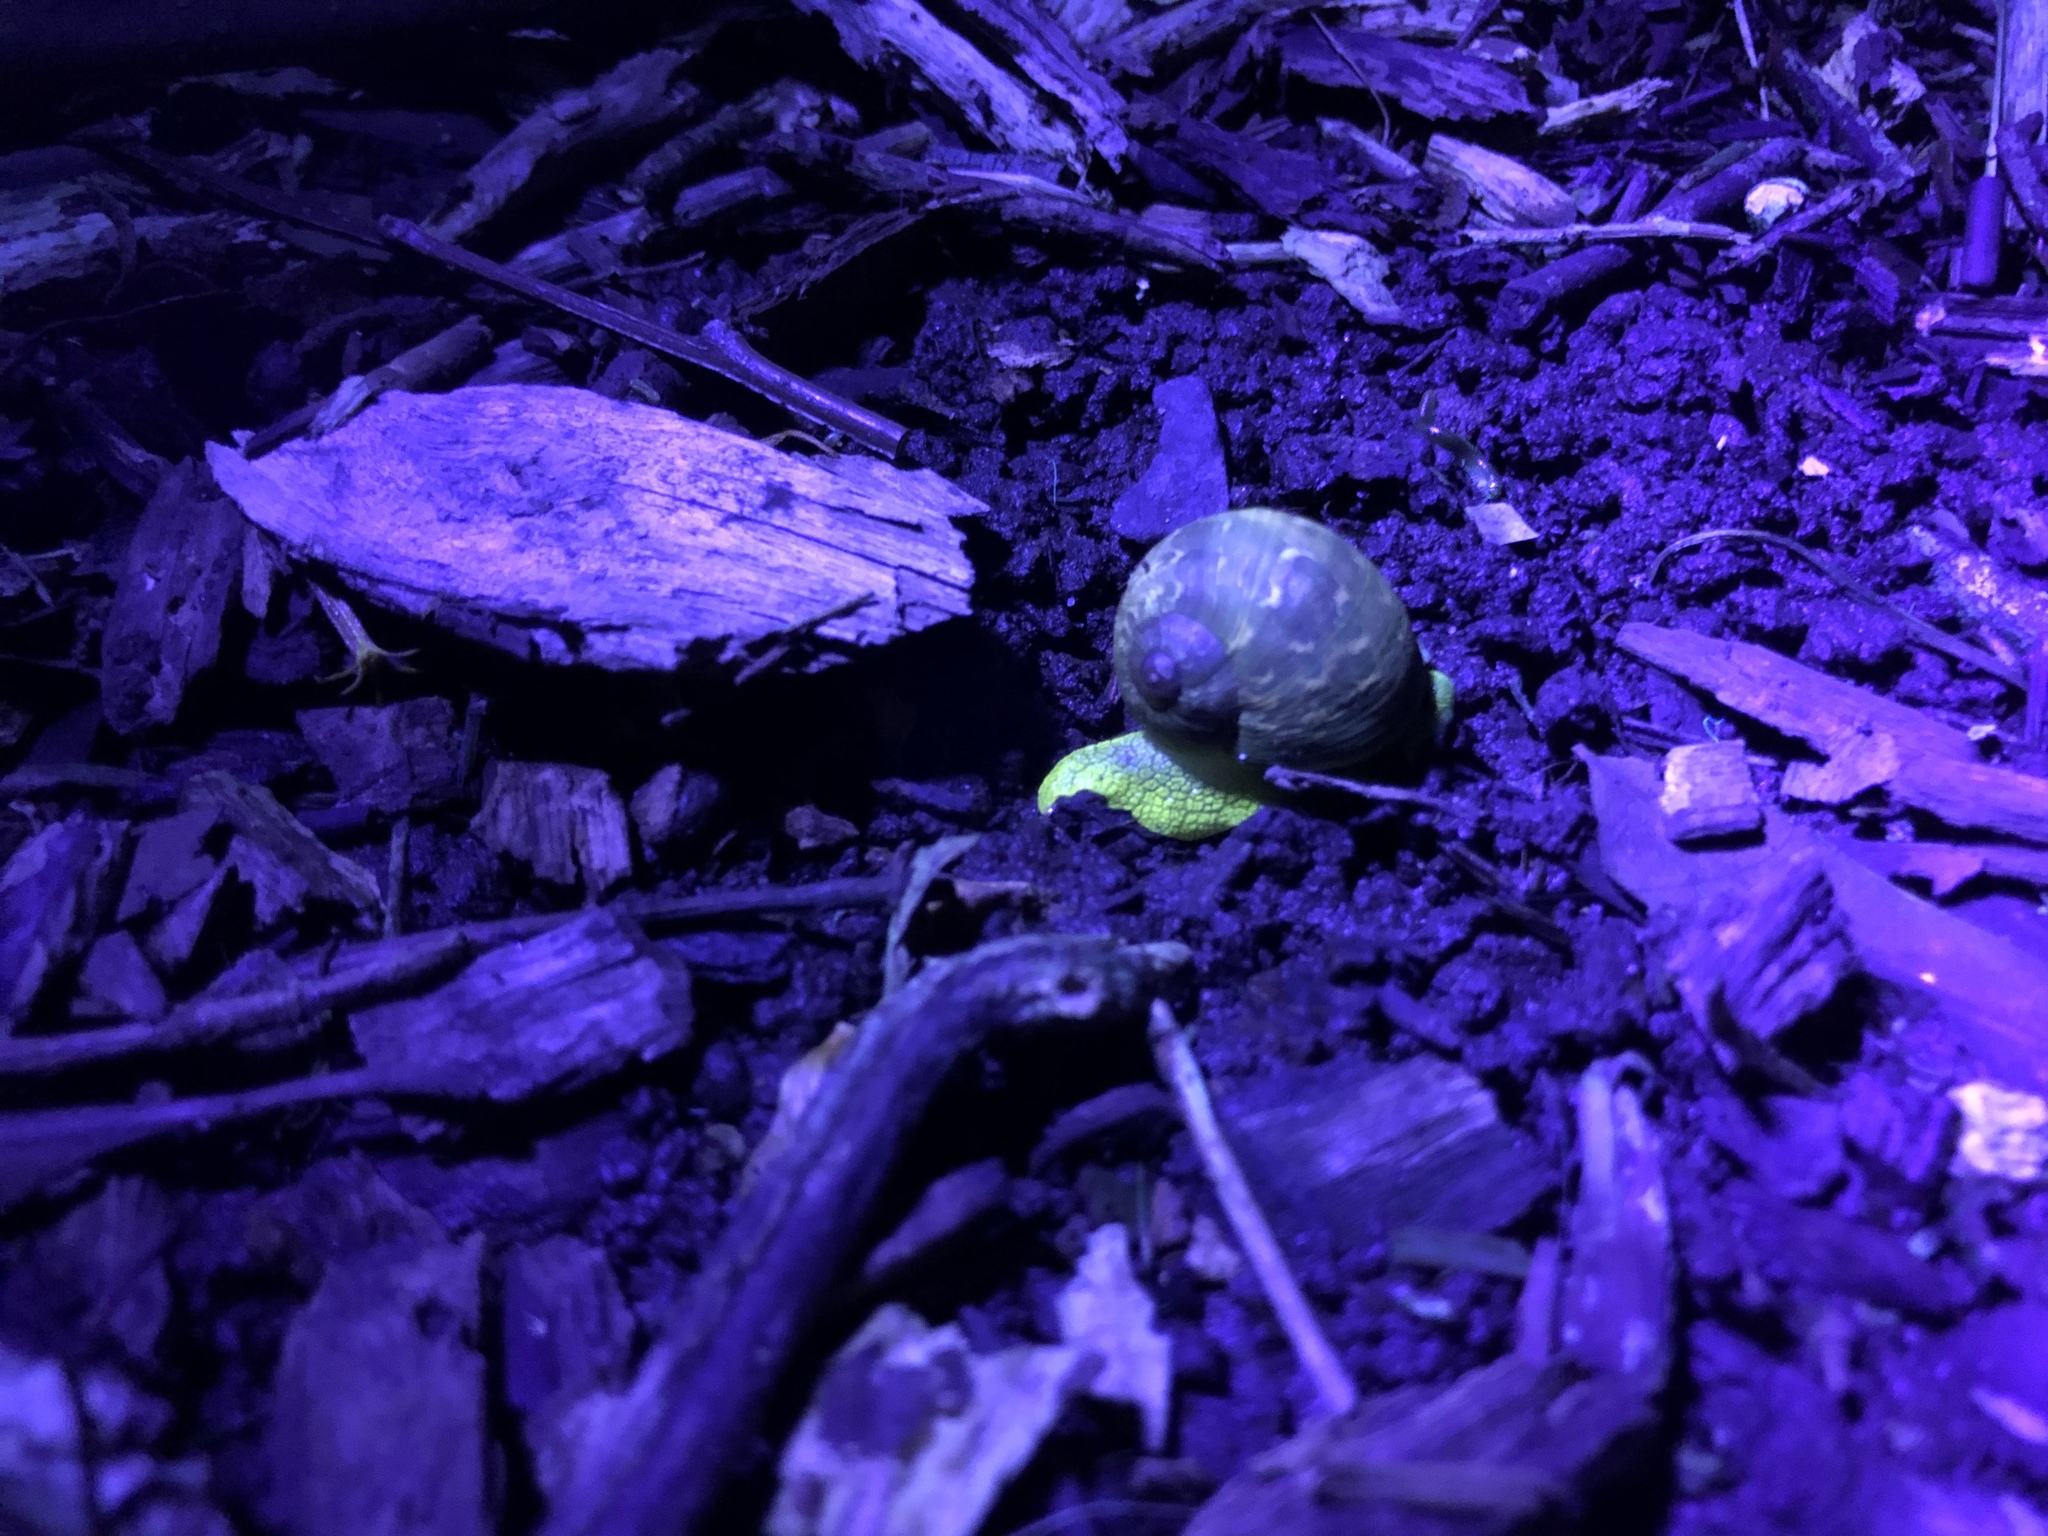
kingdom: Animalia
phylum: Mollusca
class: Gastropoda
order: Stylommatophora
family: Helicidae
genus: Cornu
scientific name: Cornu aspersum
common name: Brown garden snail
